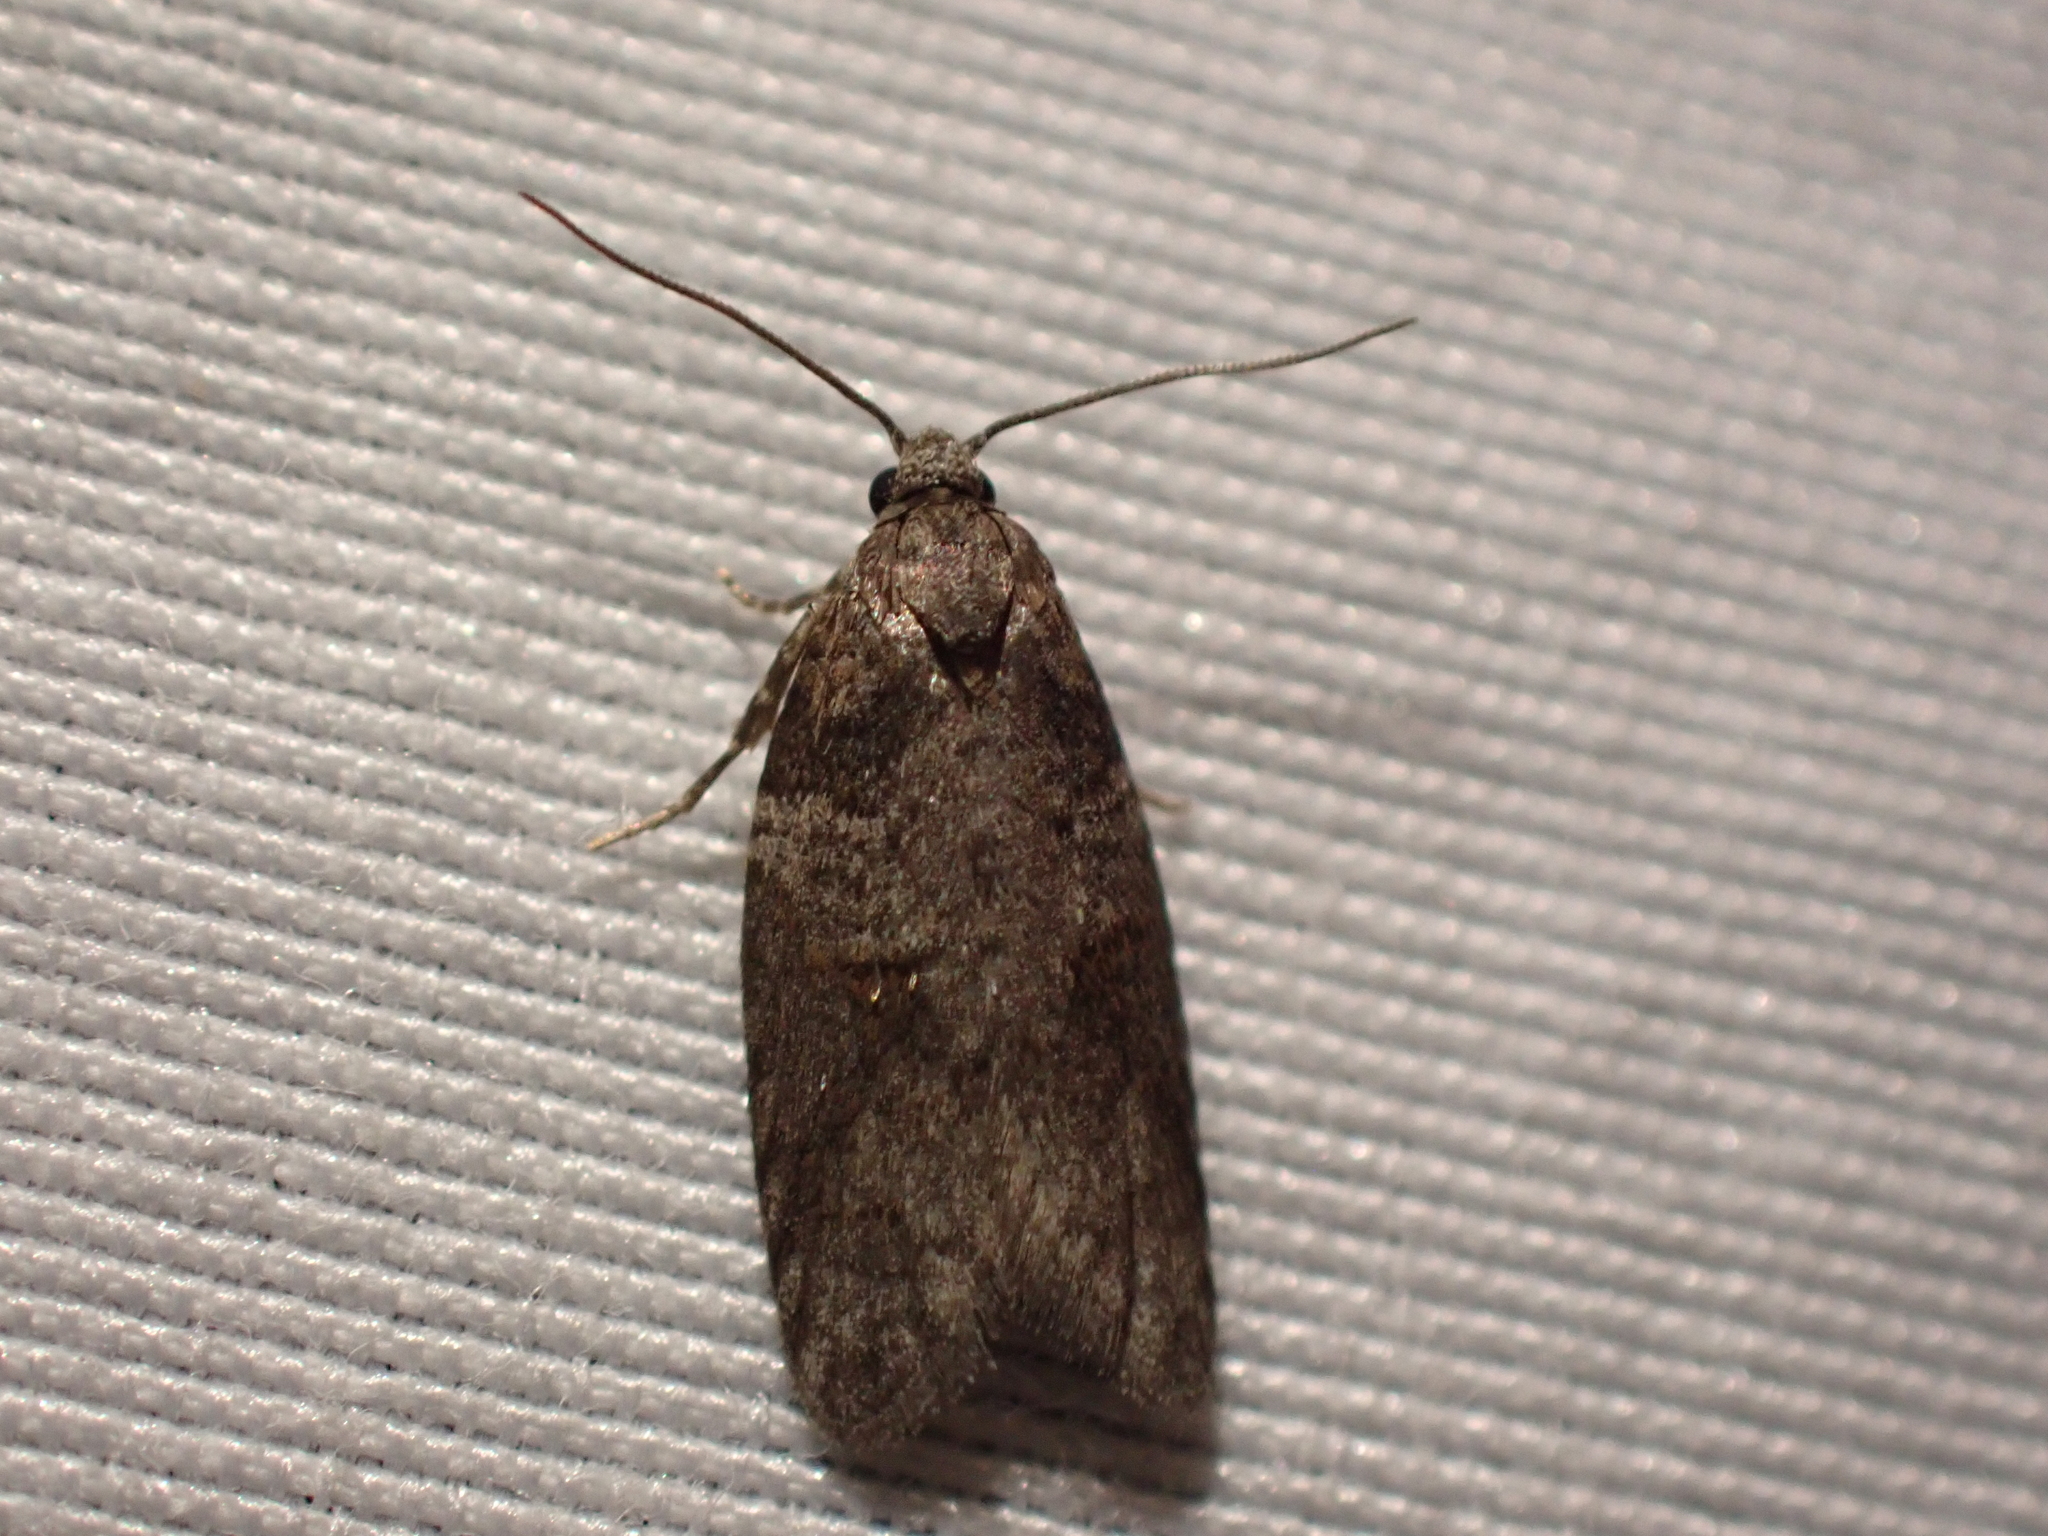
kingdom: Animalia
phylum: Arthropoda
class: Insecta
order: Lepidoptera
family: Tortricidae
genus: Decodes
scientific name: Decodes fragariana
